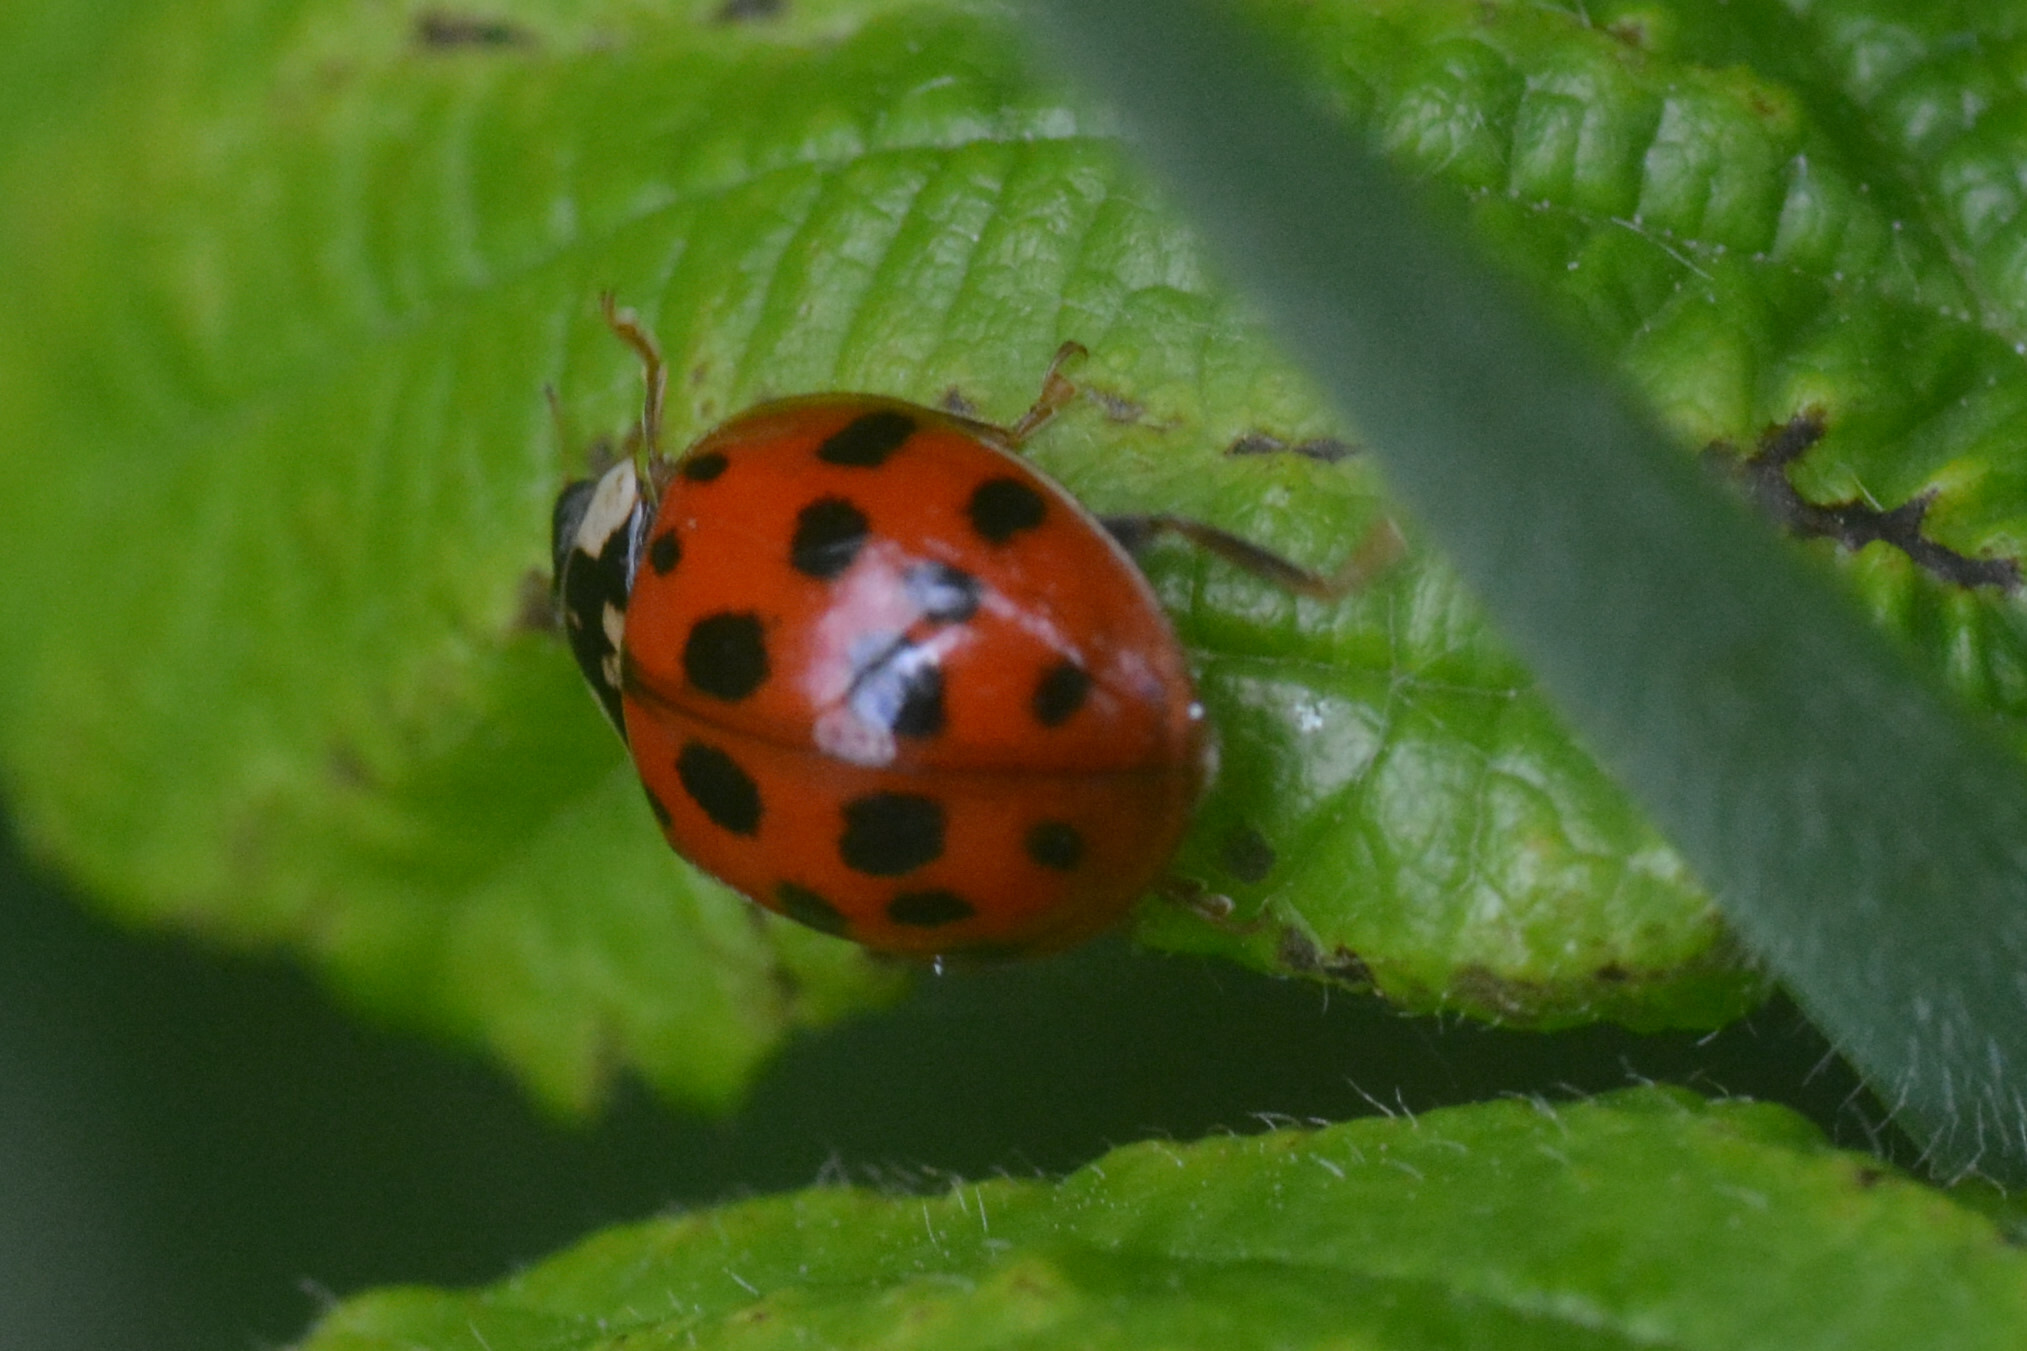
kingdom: Animalia
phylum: Arthropoda
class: Insecta
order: Coleoptera
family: Coccinellidae
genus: Harmonia
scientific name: Harmonia axyridis
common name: Harlequin ladybird
